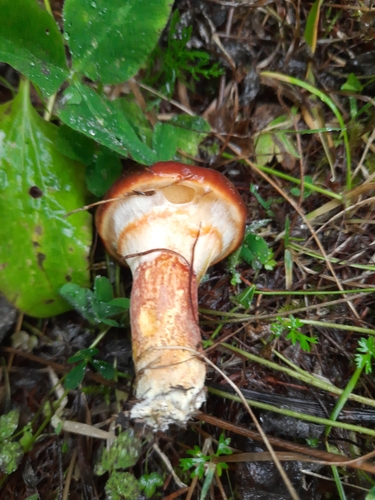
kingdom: Fungi
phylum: Basidiomycota
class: Agaricomycetes
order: Boletales
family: Suillaceae
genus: Suillus
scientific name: Suillus grevillei
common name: Larch bolete
